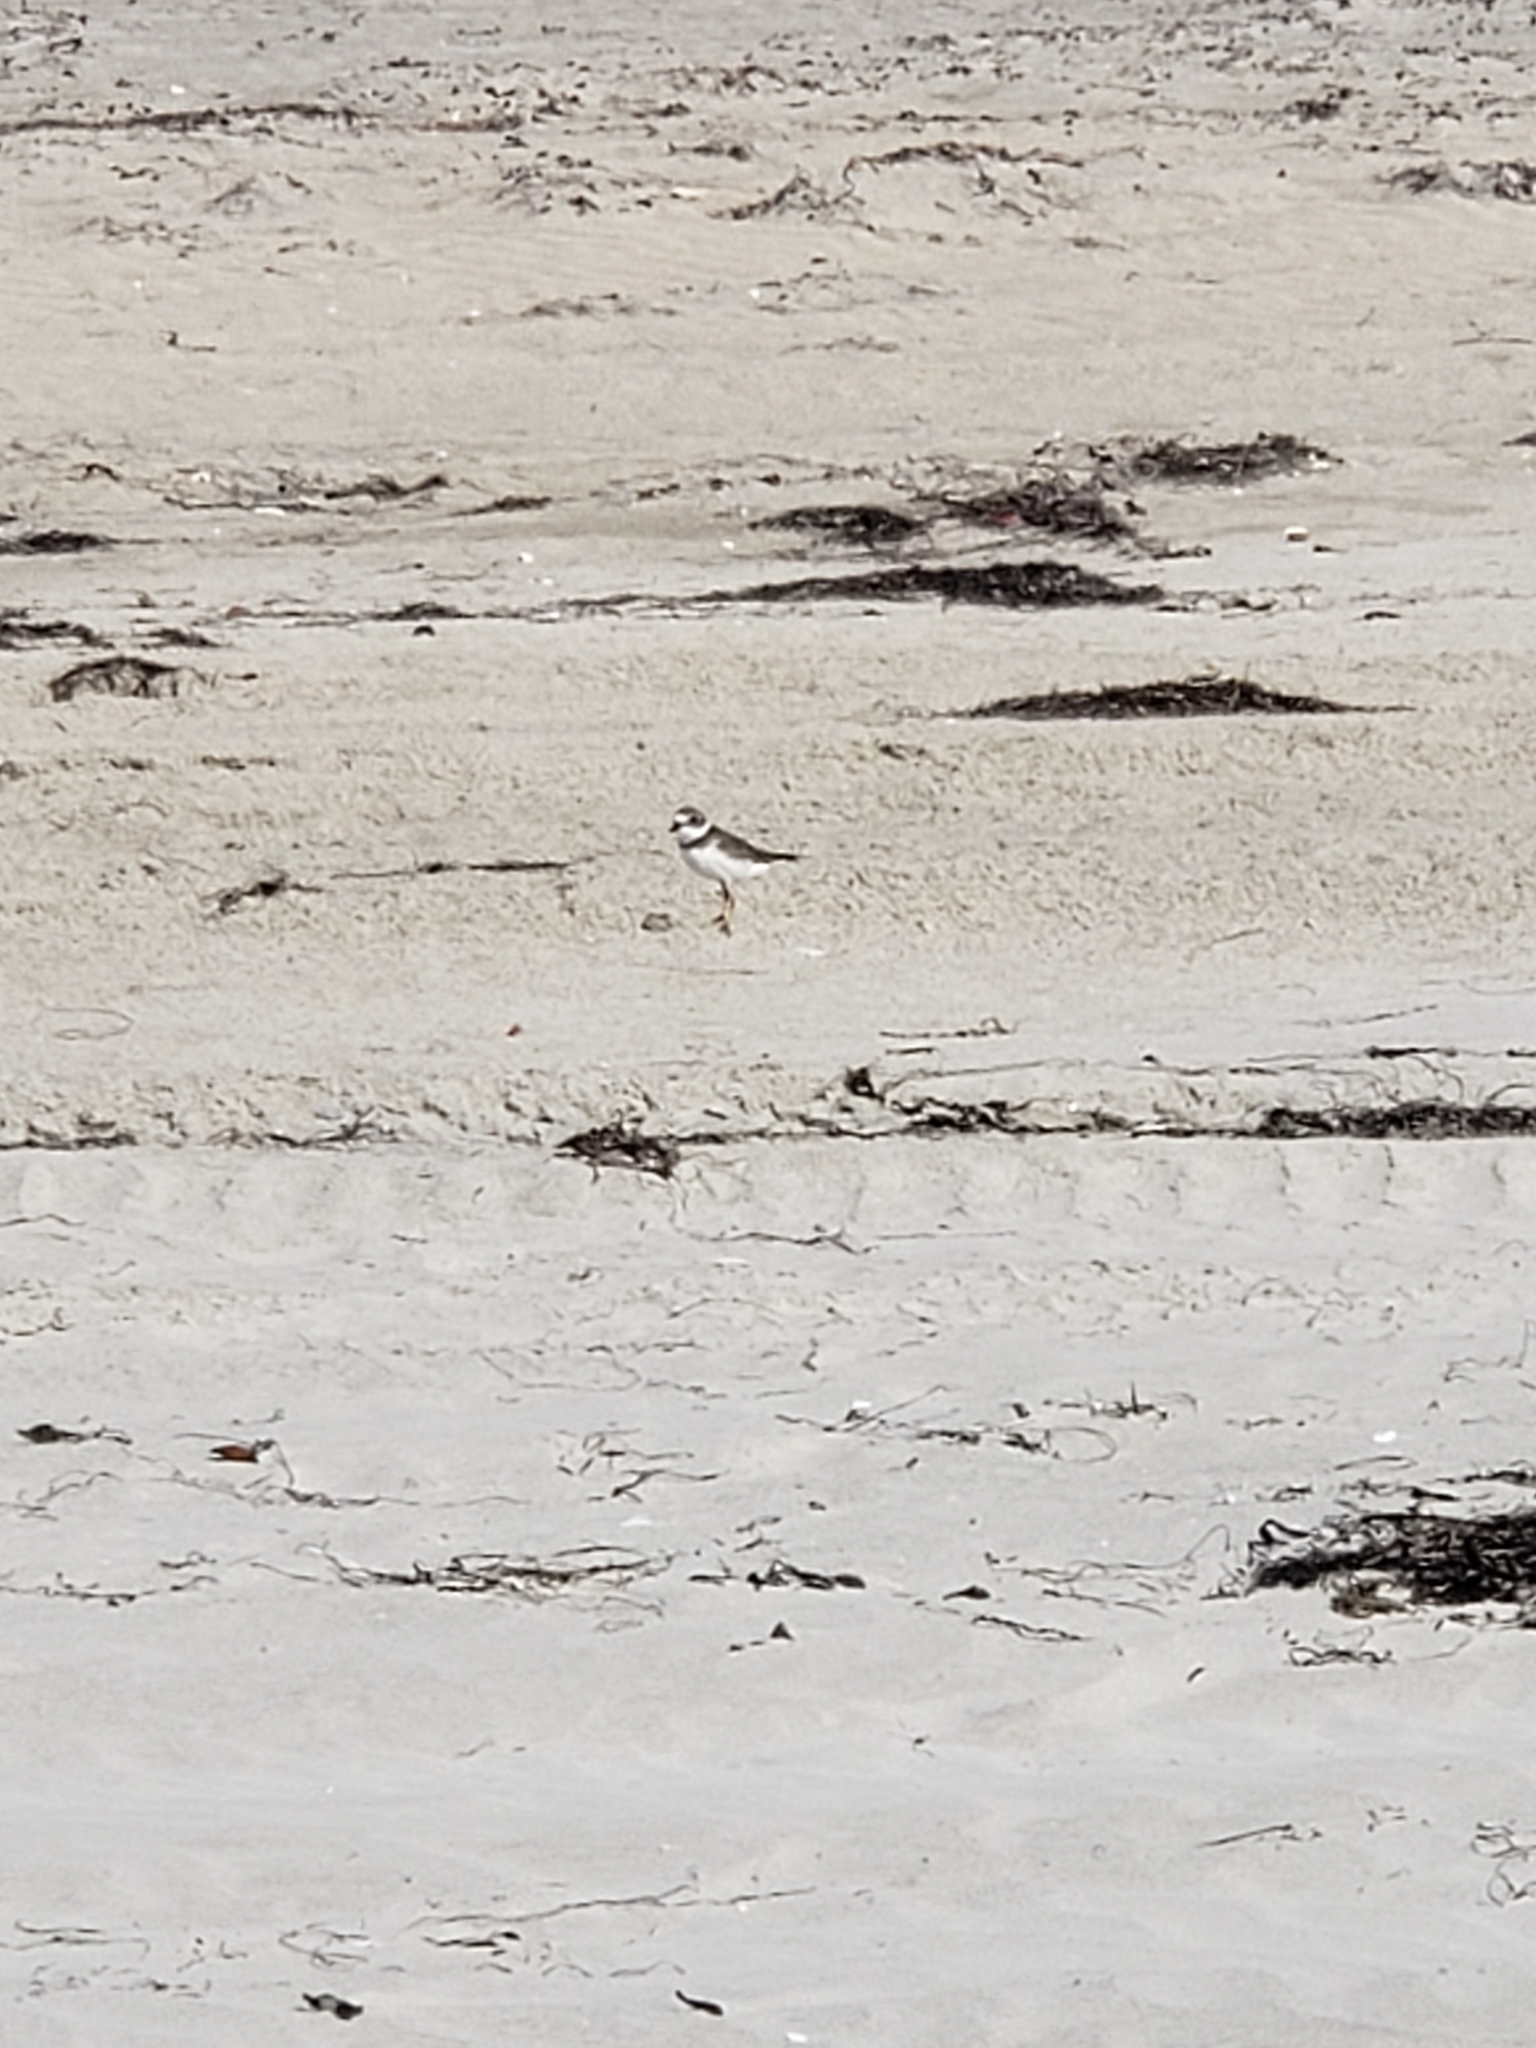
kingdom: Animalia
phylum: Chordata
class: Aves
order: Charadriiformes
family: Charadriidae
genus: Charadrius
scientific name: Charadrius semipalmatus
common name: Semipalmated plover
